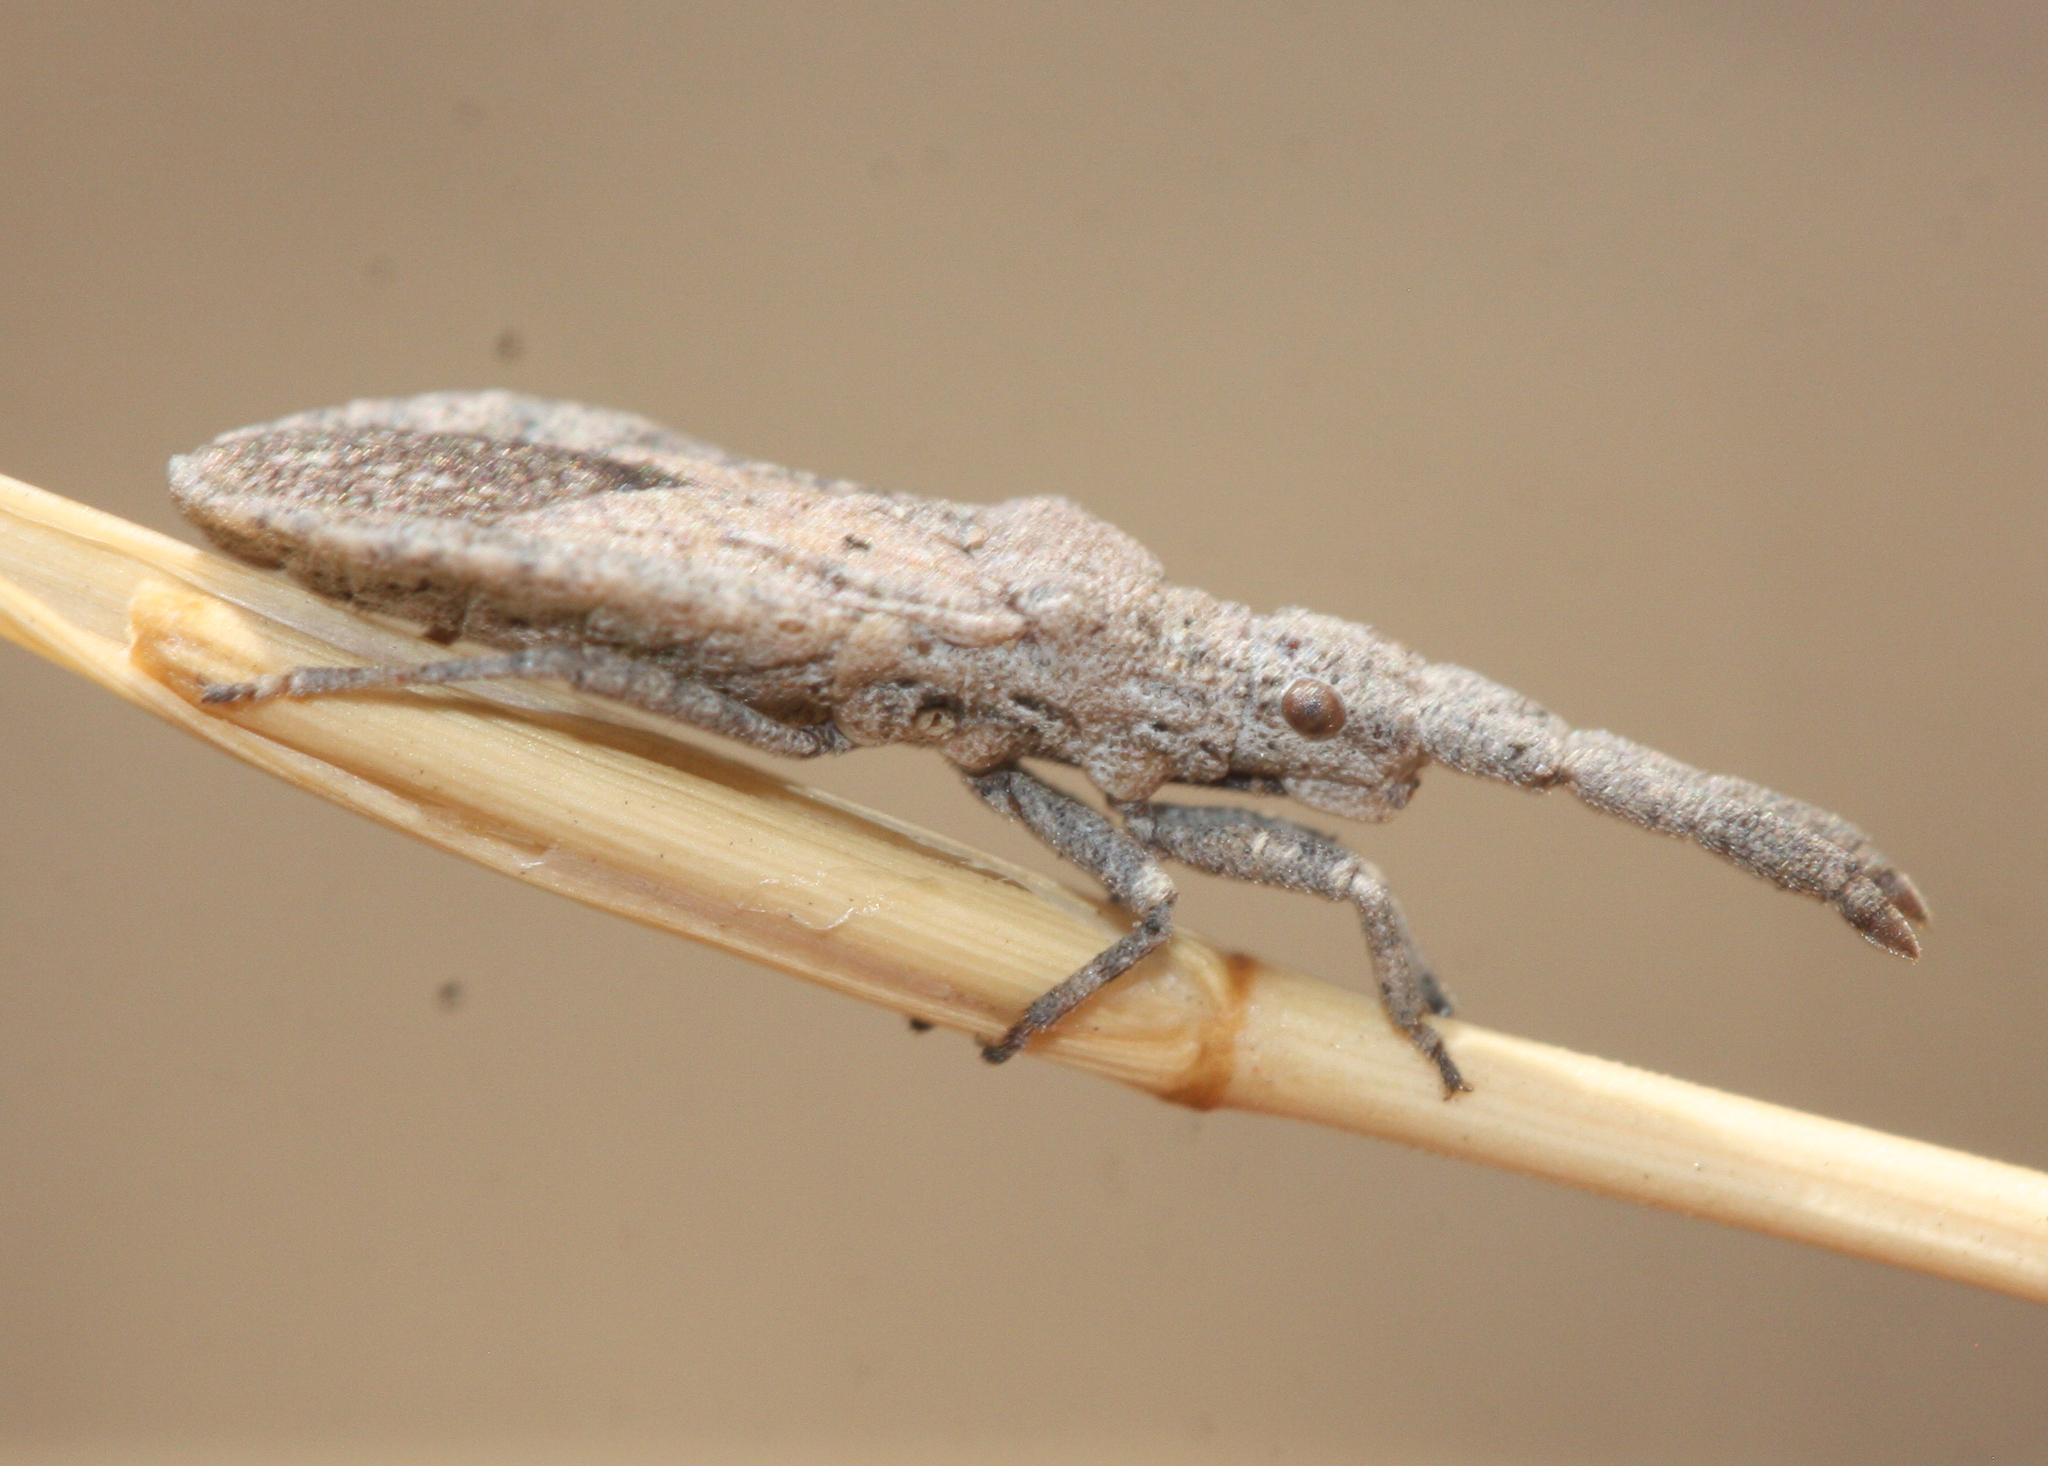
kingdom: Animalia
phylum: Arthropoda
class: Insecta
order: Hemiptera
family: Coreidae
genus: Scolopocerus
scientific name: Scolopocerus secundarius
